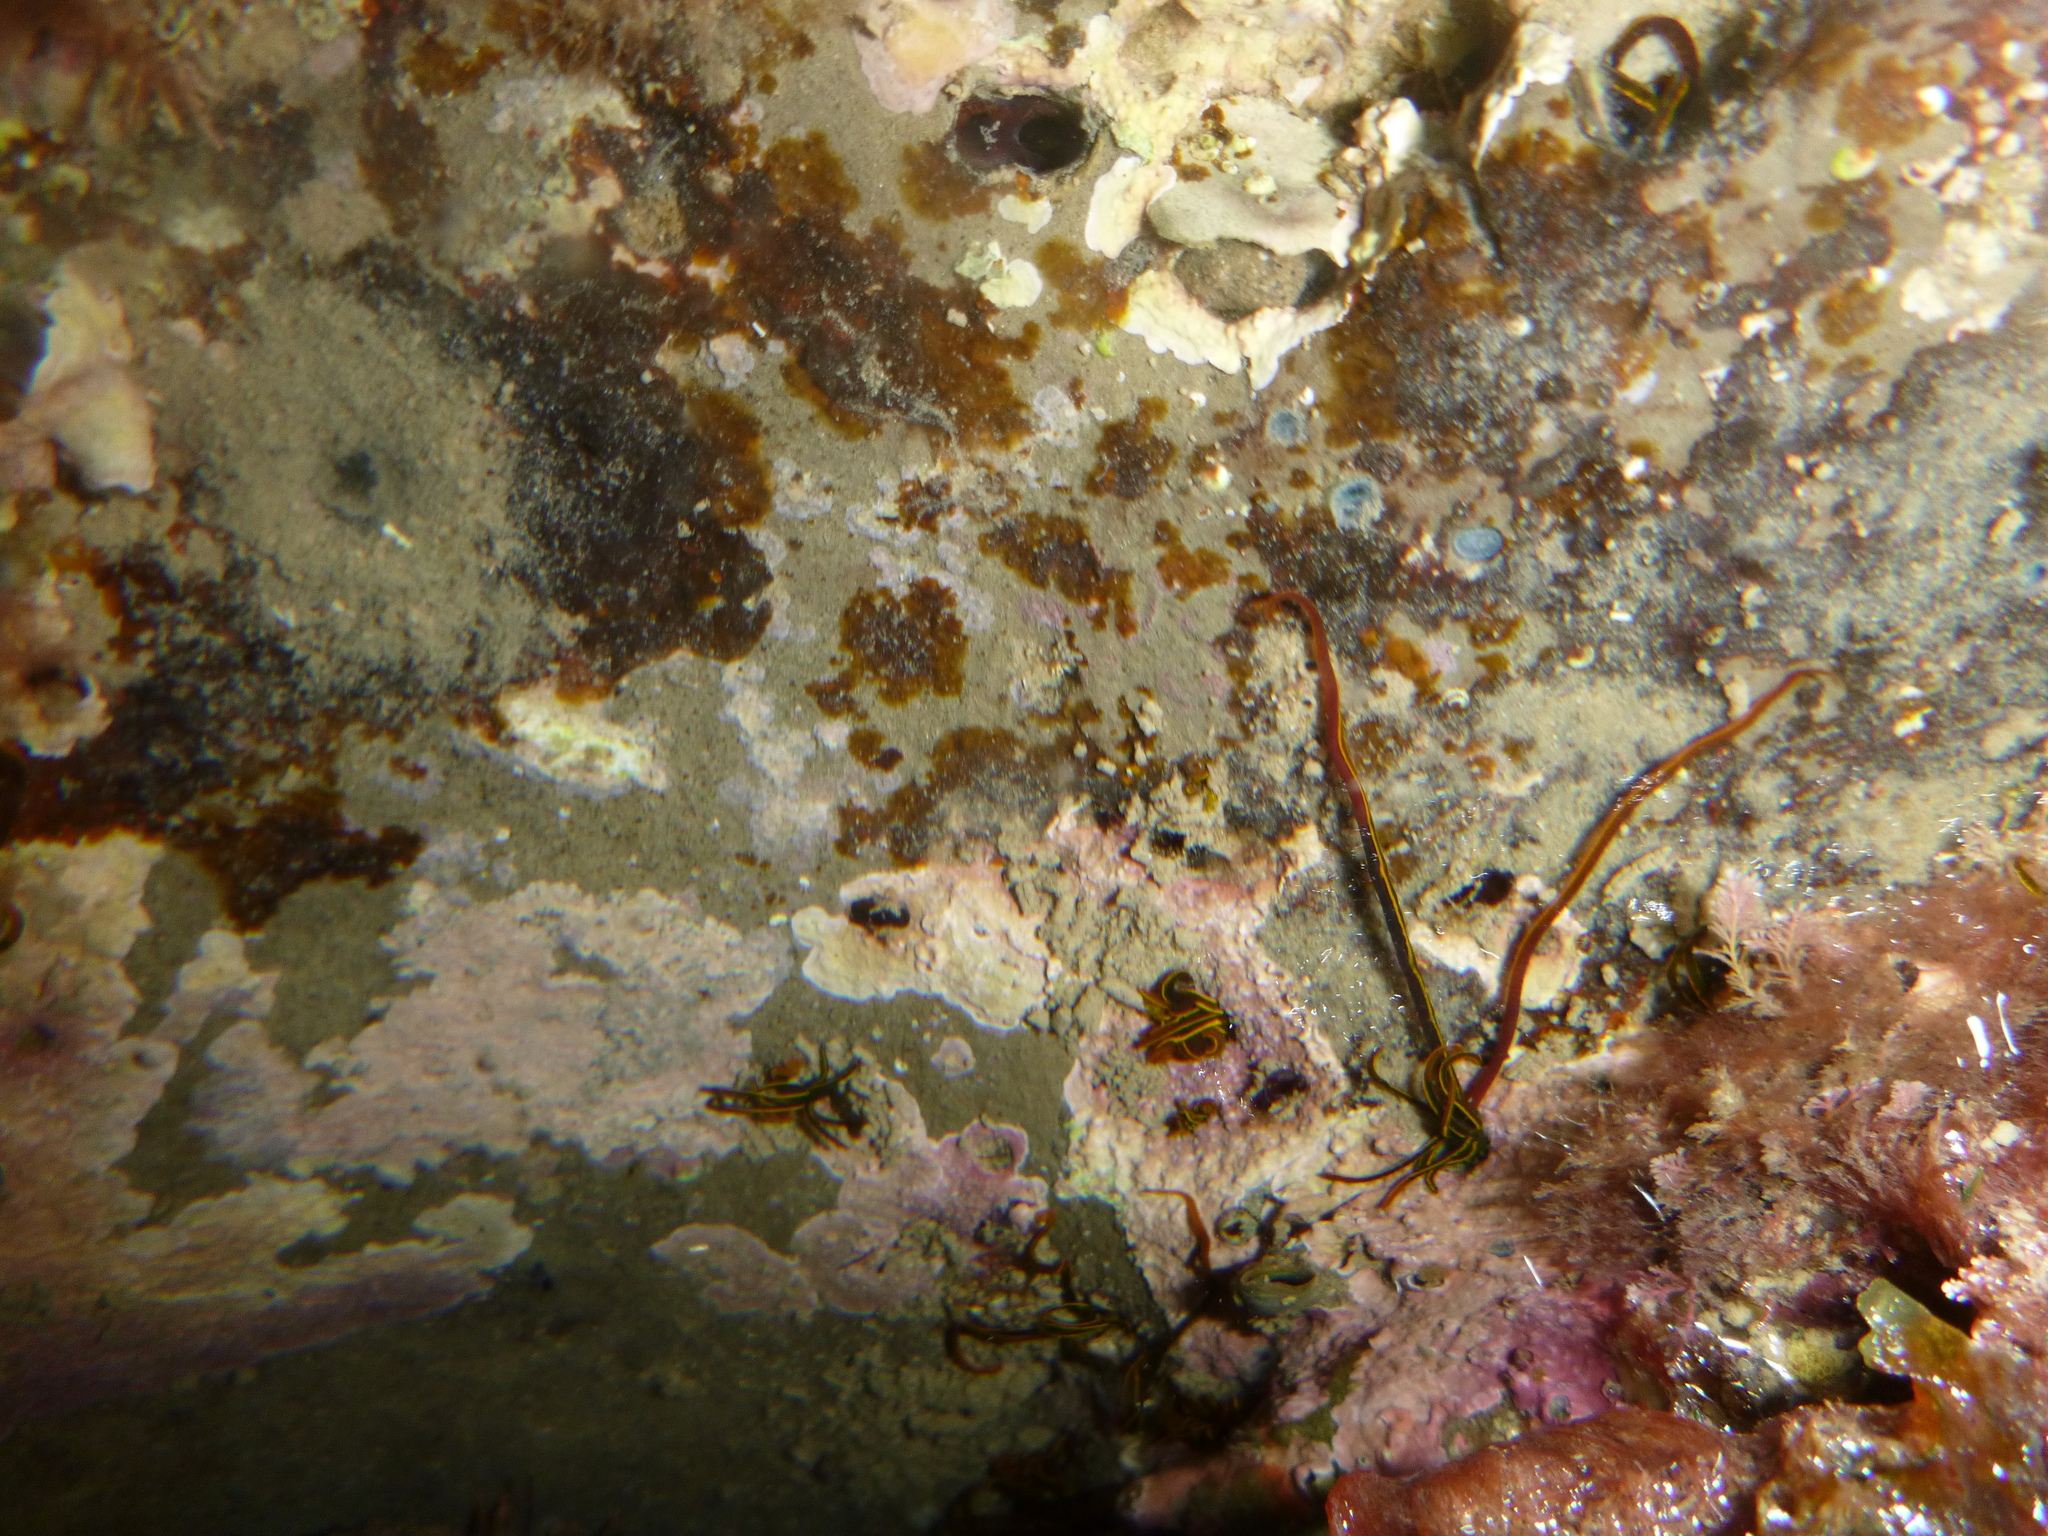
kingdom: Animalia
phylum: Annelida
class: Polychaeta
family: Acrocirridae
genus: Acrocirrus
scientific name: Acrocirrus
